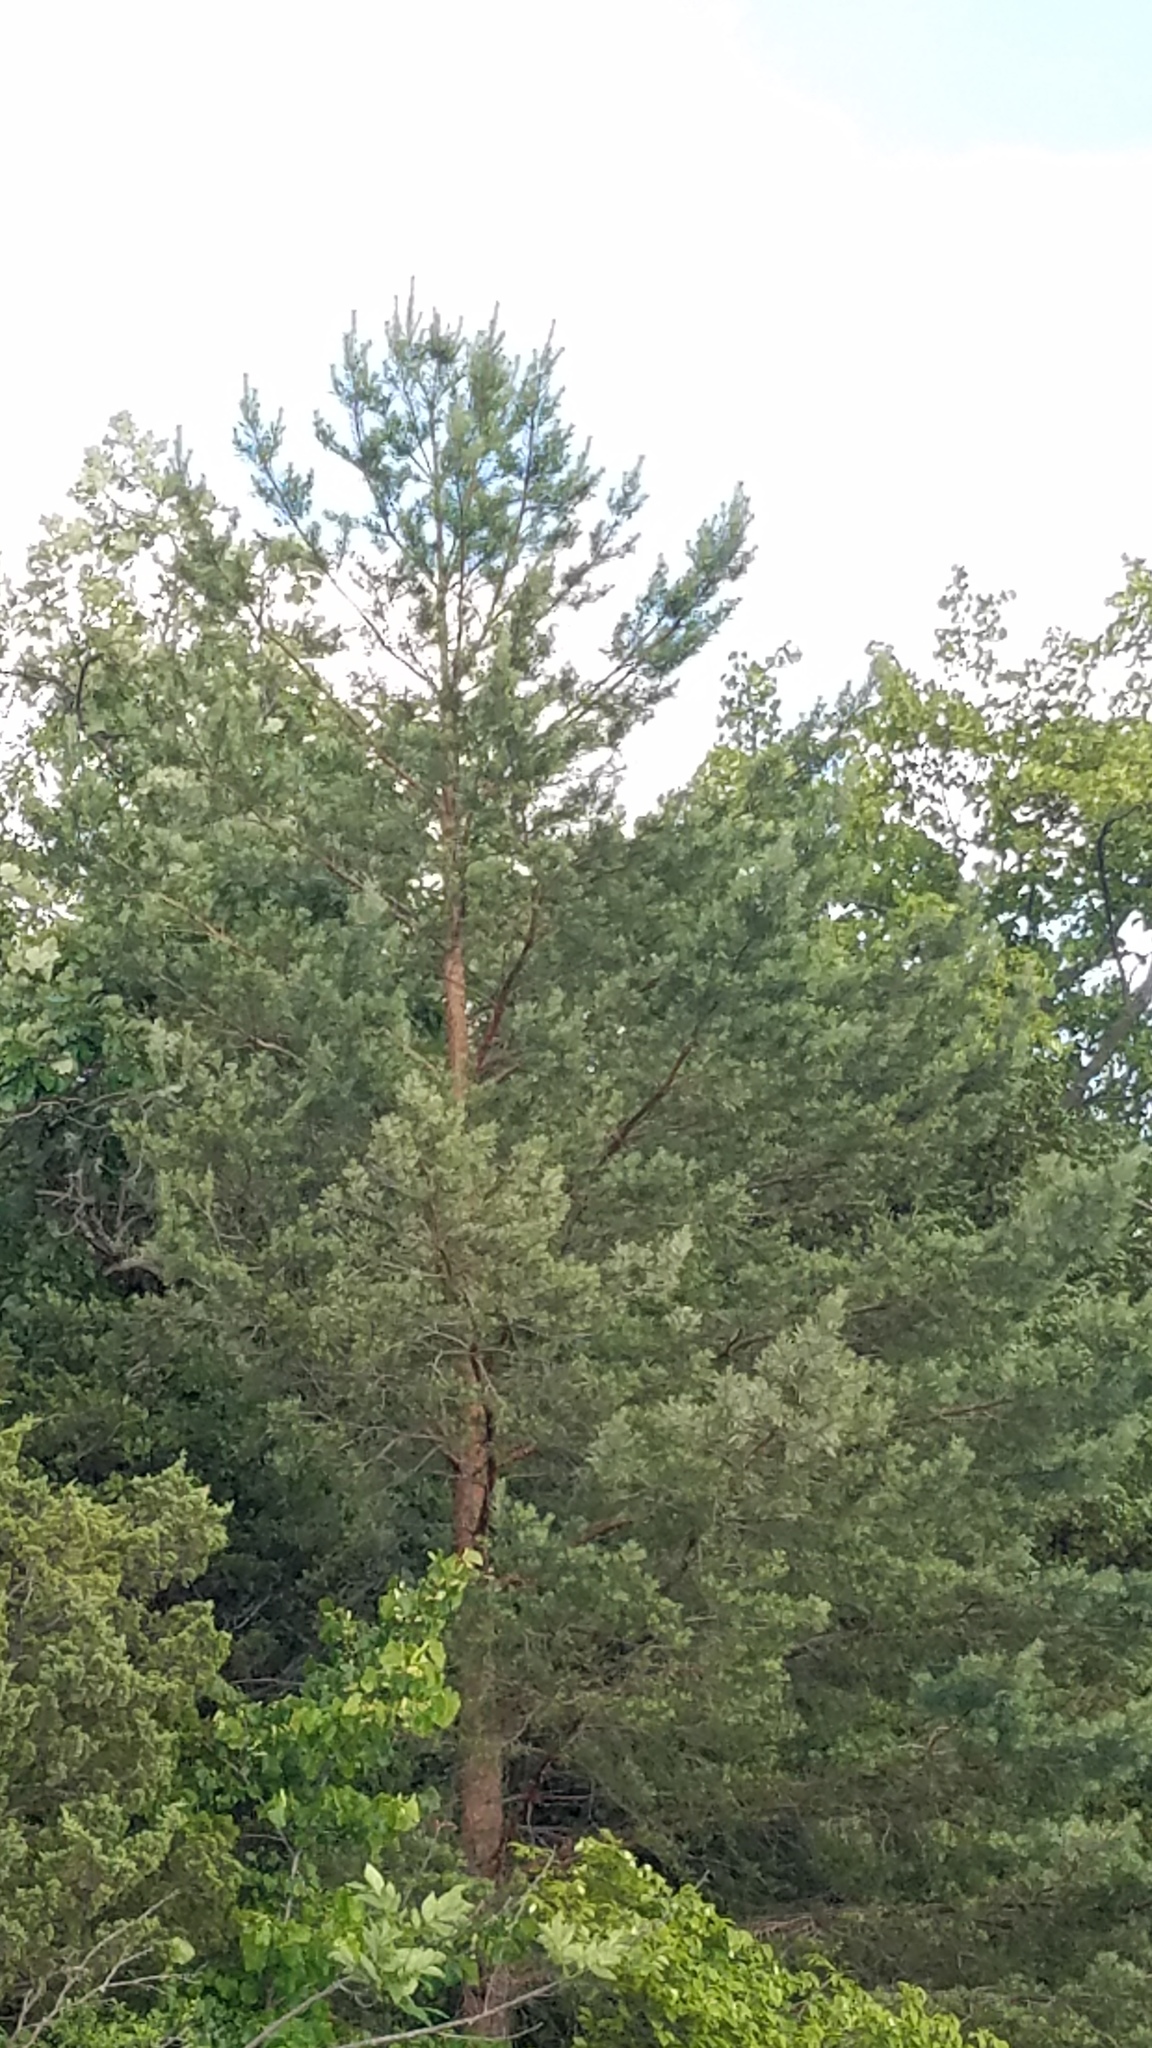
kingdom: Plantae
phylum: Tracheophyta
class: Pinopsida
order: Pinales
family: Pinaceae
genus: Pinus
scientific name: Pinus sylvestris
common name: Scots pine
